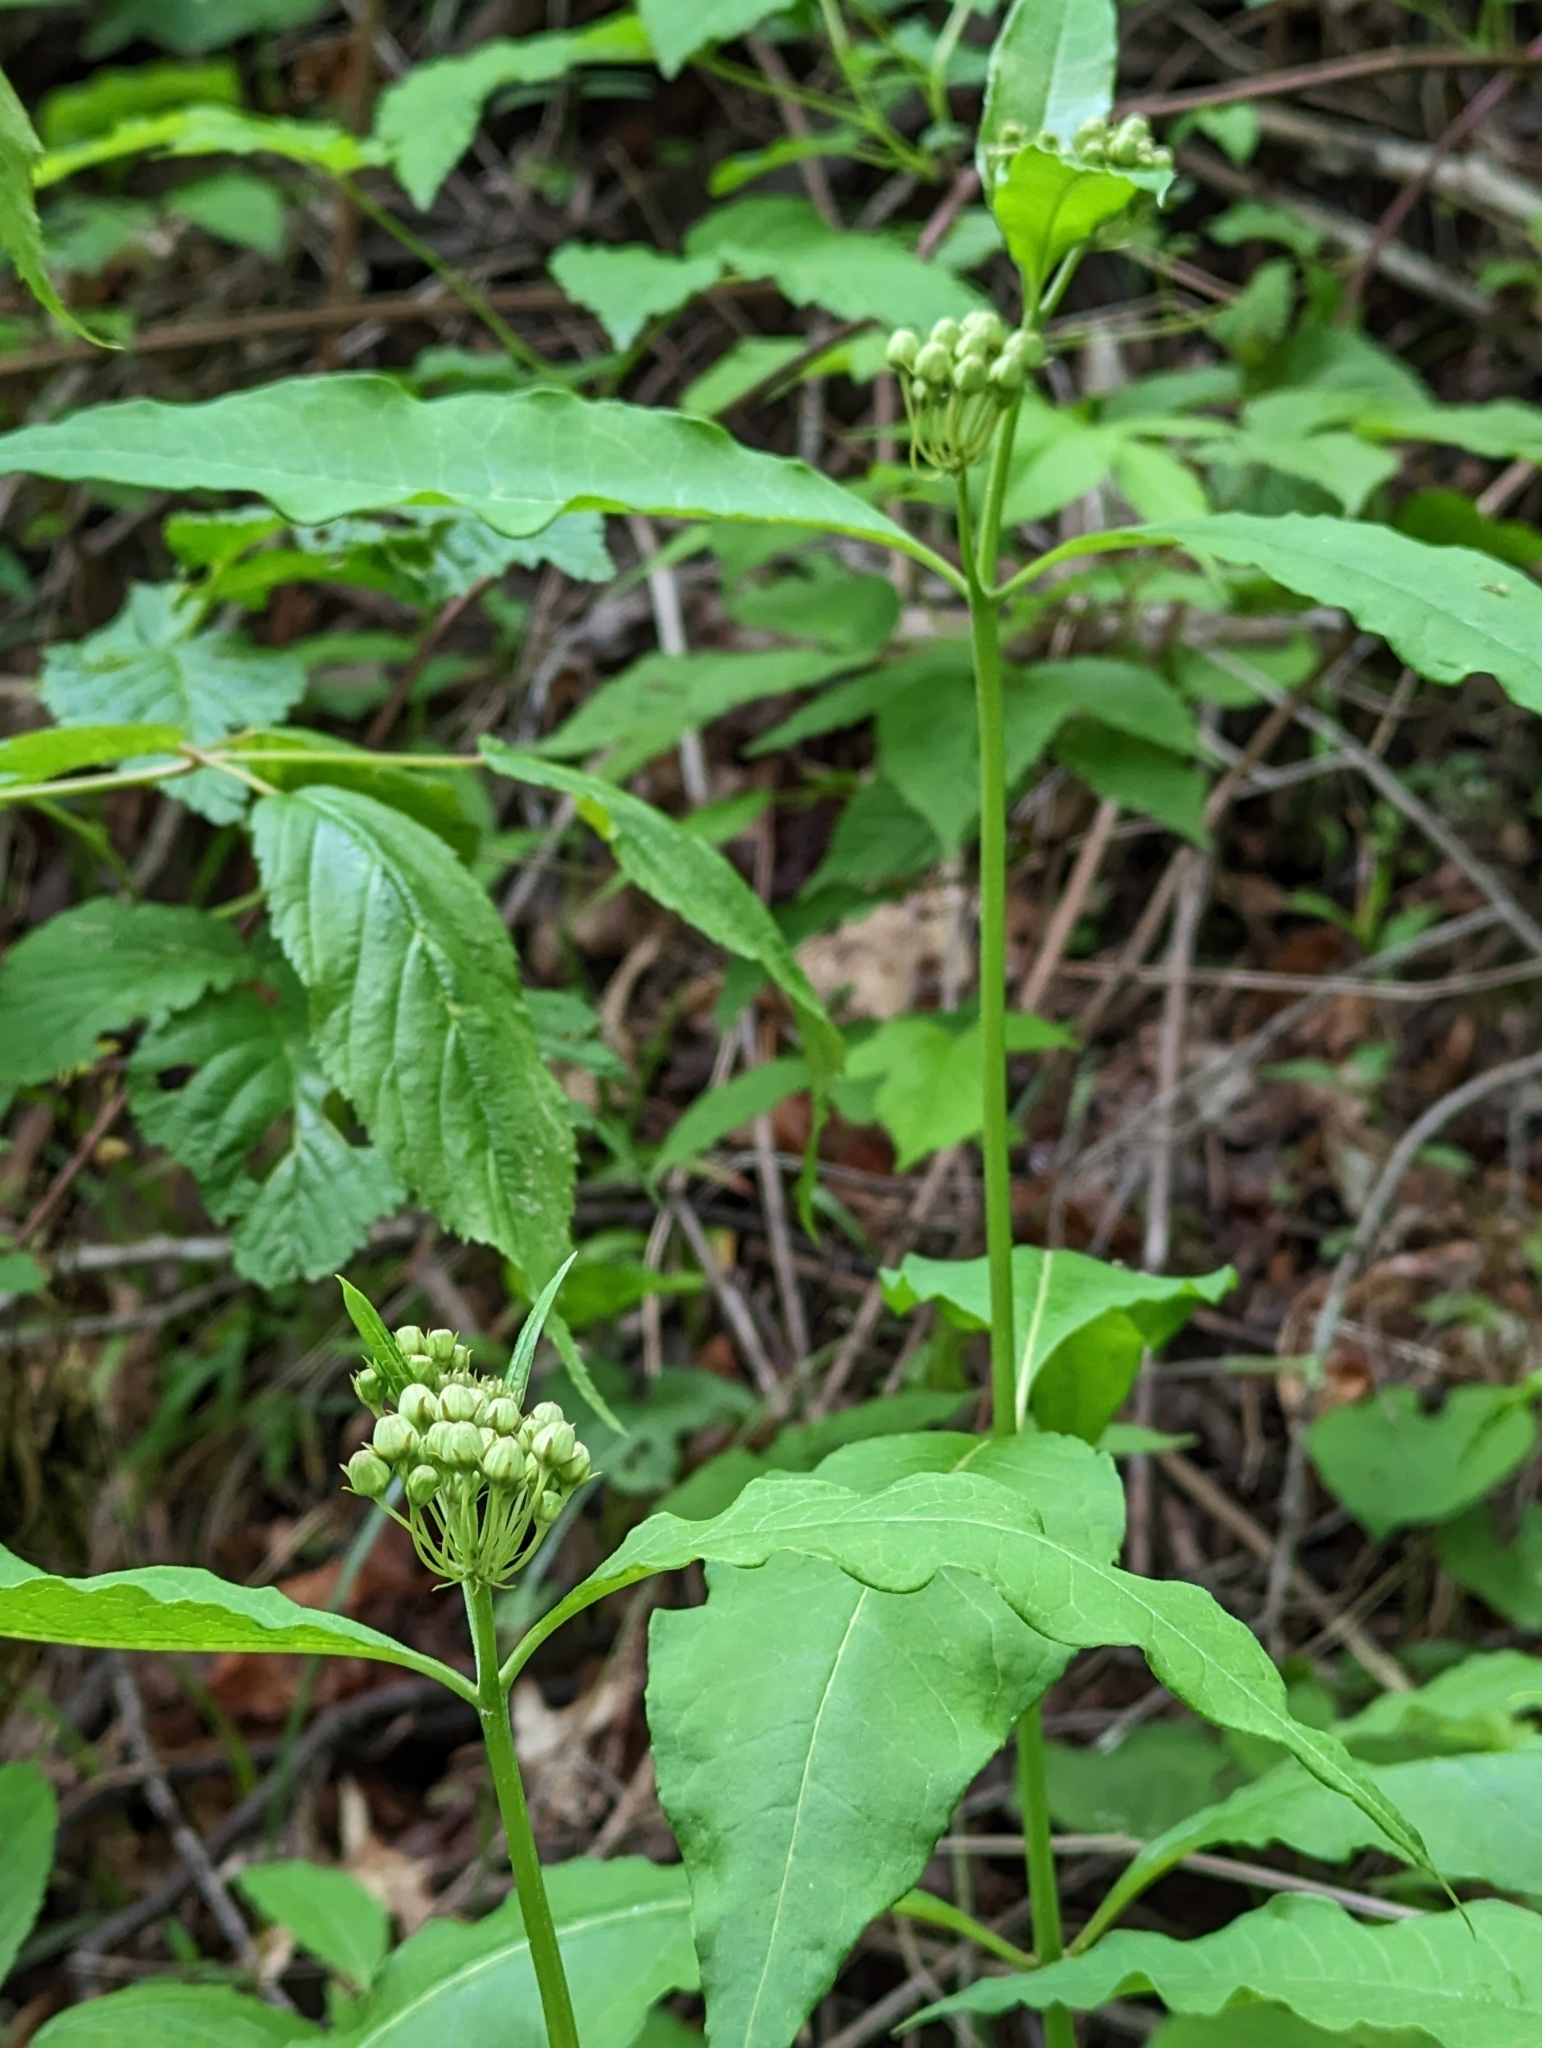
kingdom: Plantae
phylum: Tracheophyta
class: Magnoliopsida
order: Gentianales
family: Apocynaceae
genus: Asclepias
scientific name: Asclepias exaltata
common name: Poke milkweed
